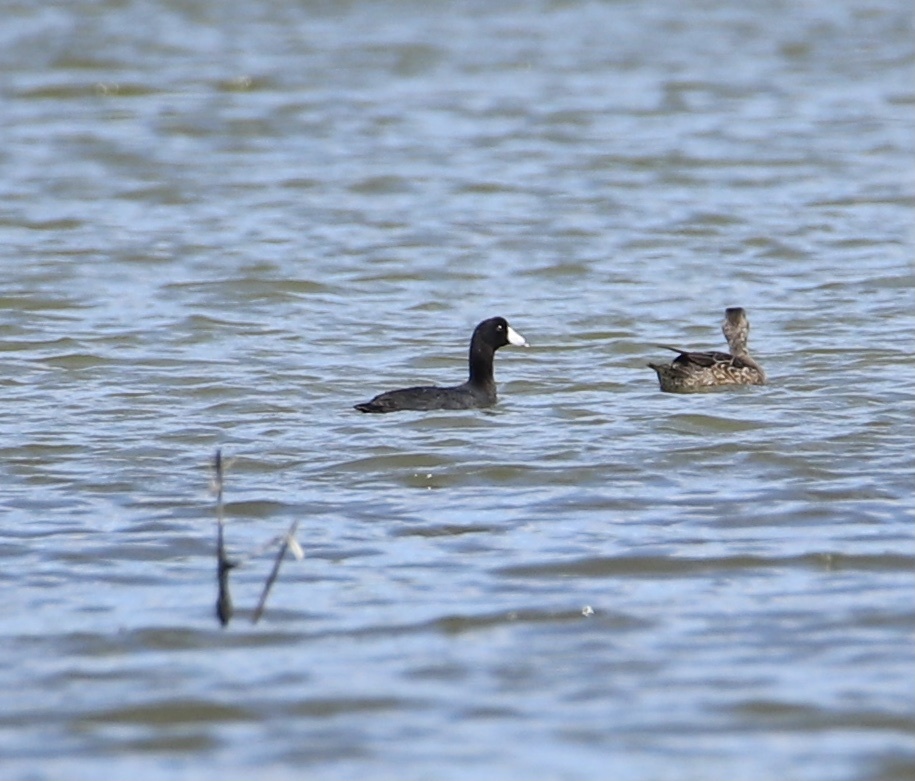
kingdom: Animalia
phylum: Chordata
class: Aves
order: Gruiformes
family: Rallidae
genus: Fulica
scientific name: Fulica americana
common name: American coot
